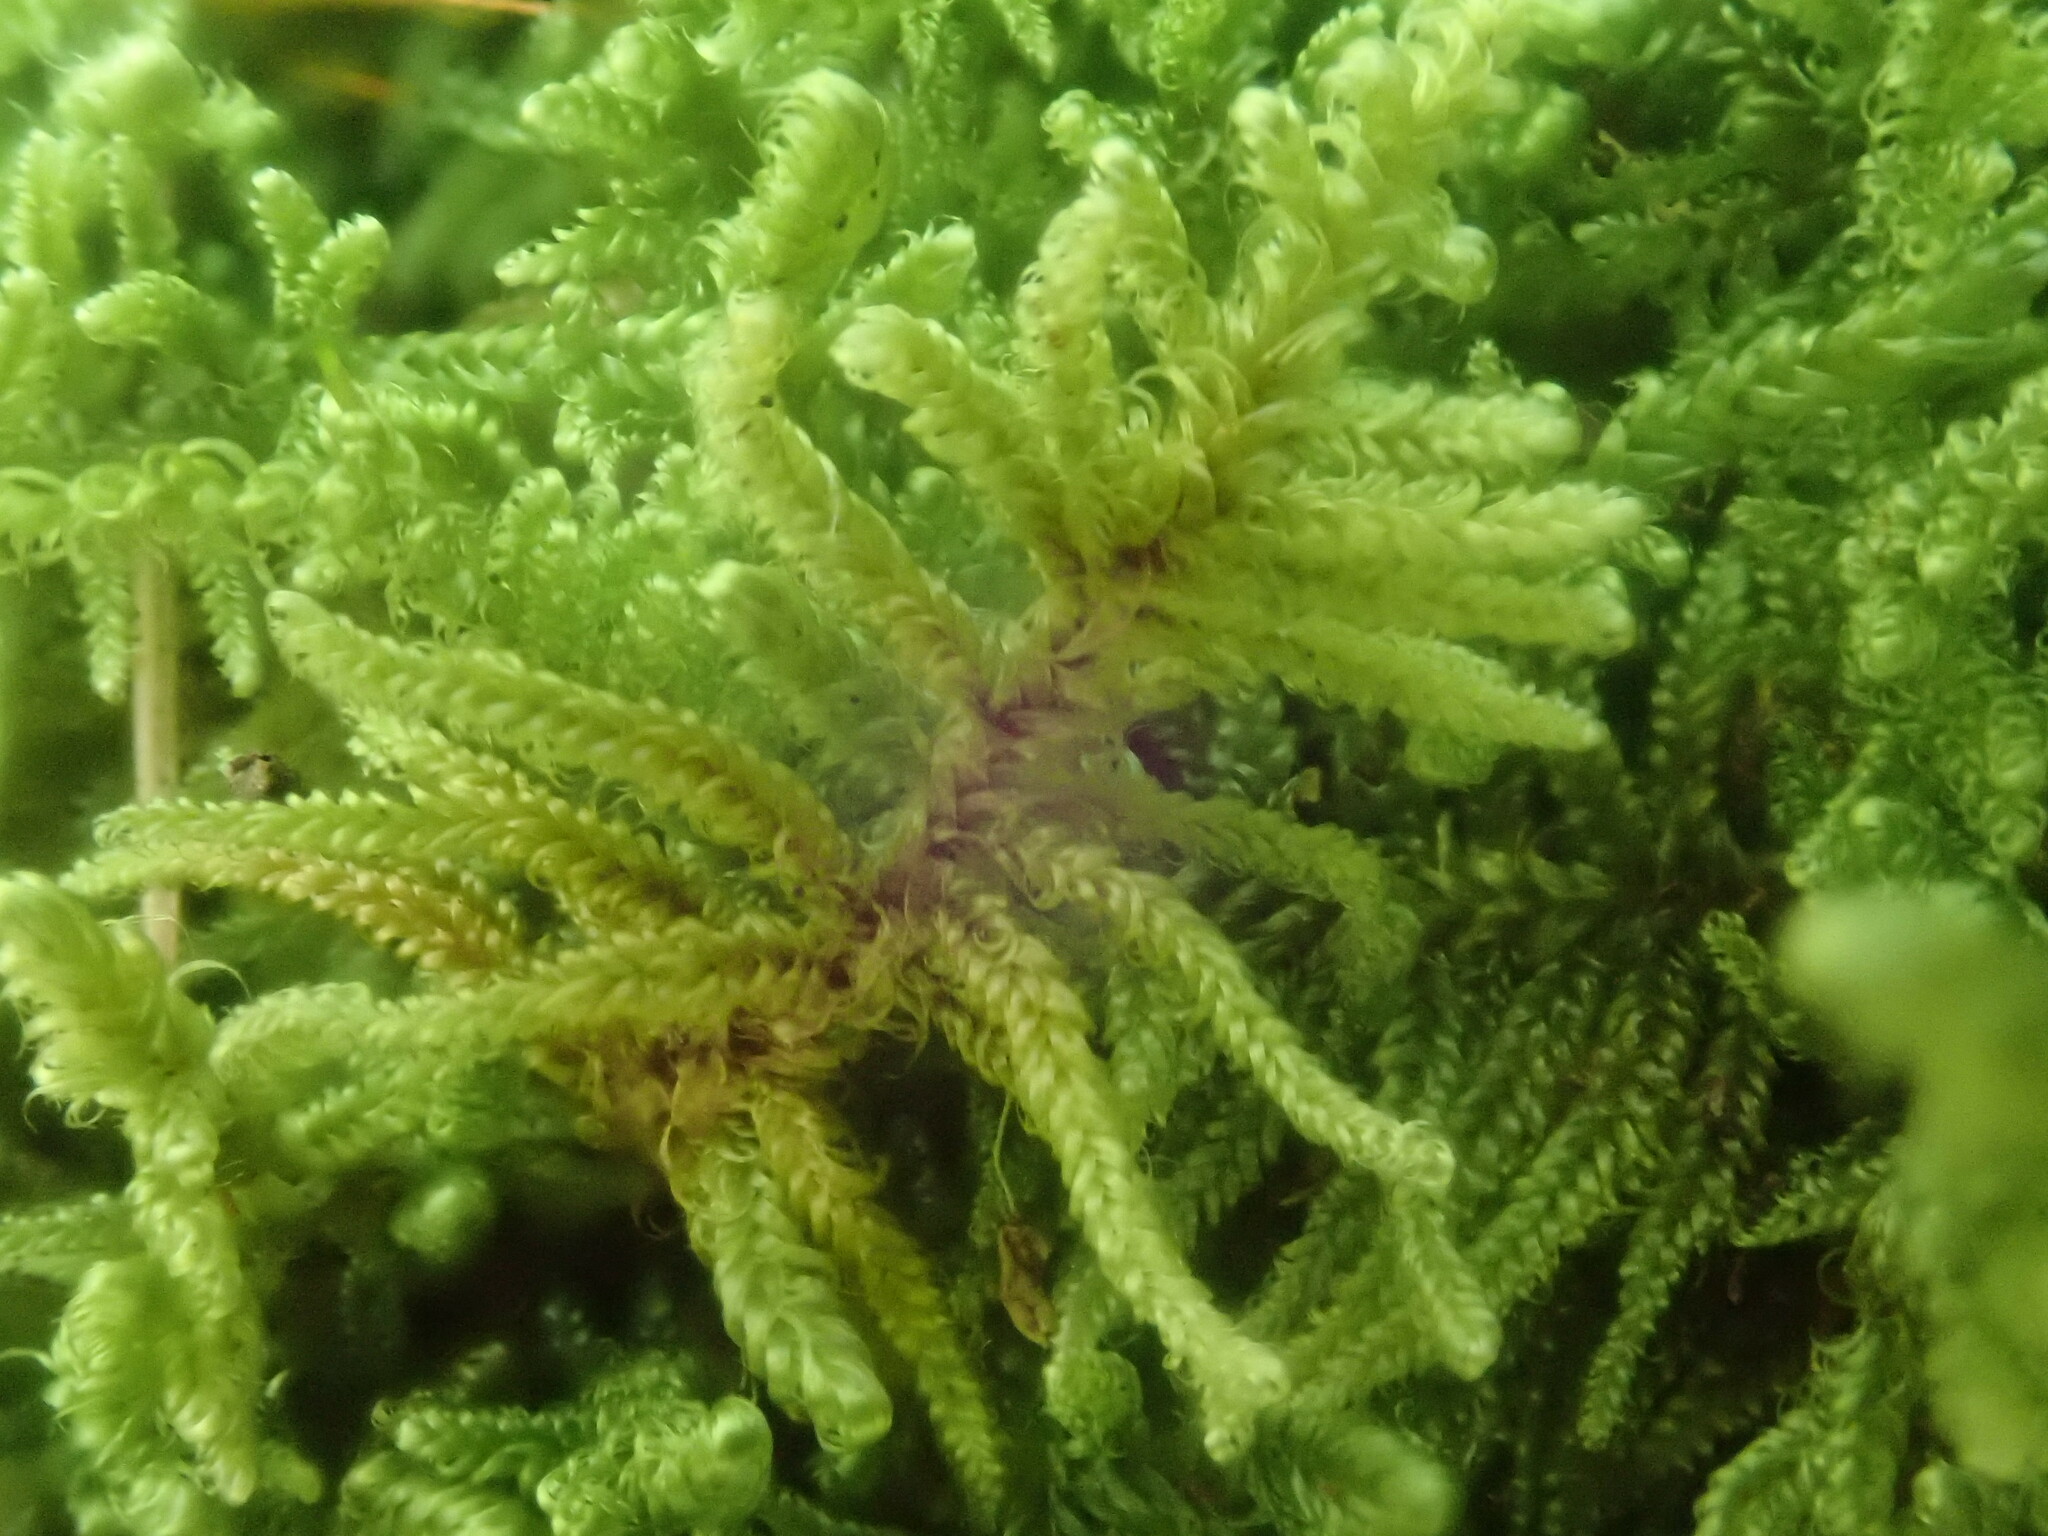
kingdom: Plantae
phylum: Bryophyta
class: Bryopsida
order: Hypnales
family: Callicladiaceae
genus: Callicladium
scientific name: Callicladium imponens
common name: Brocade moss
